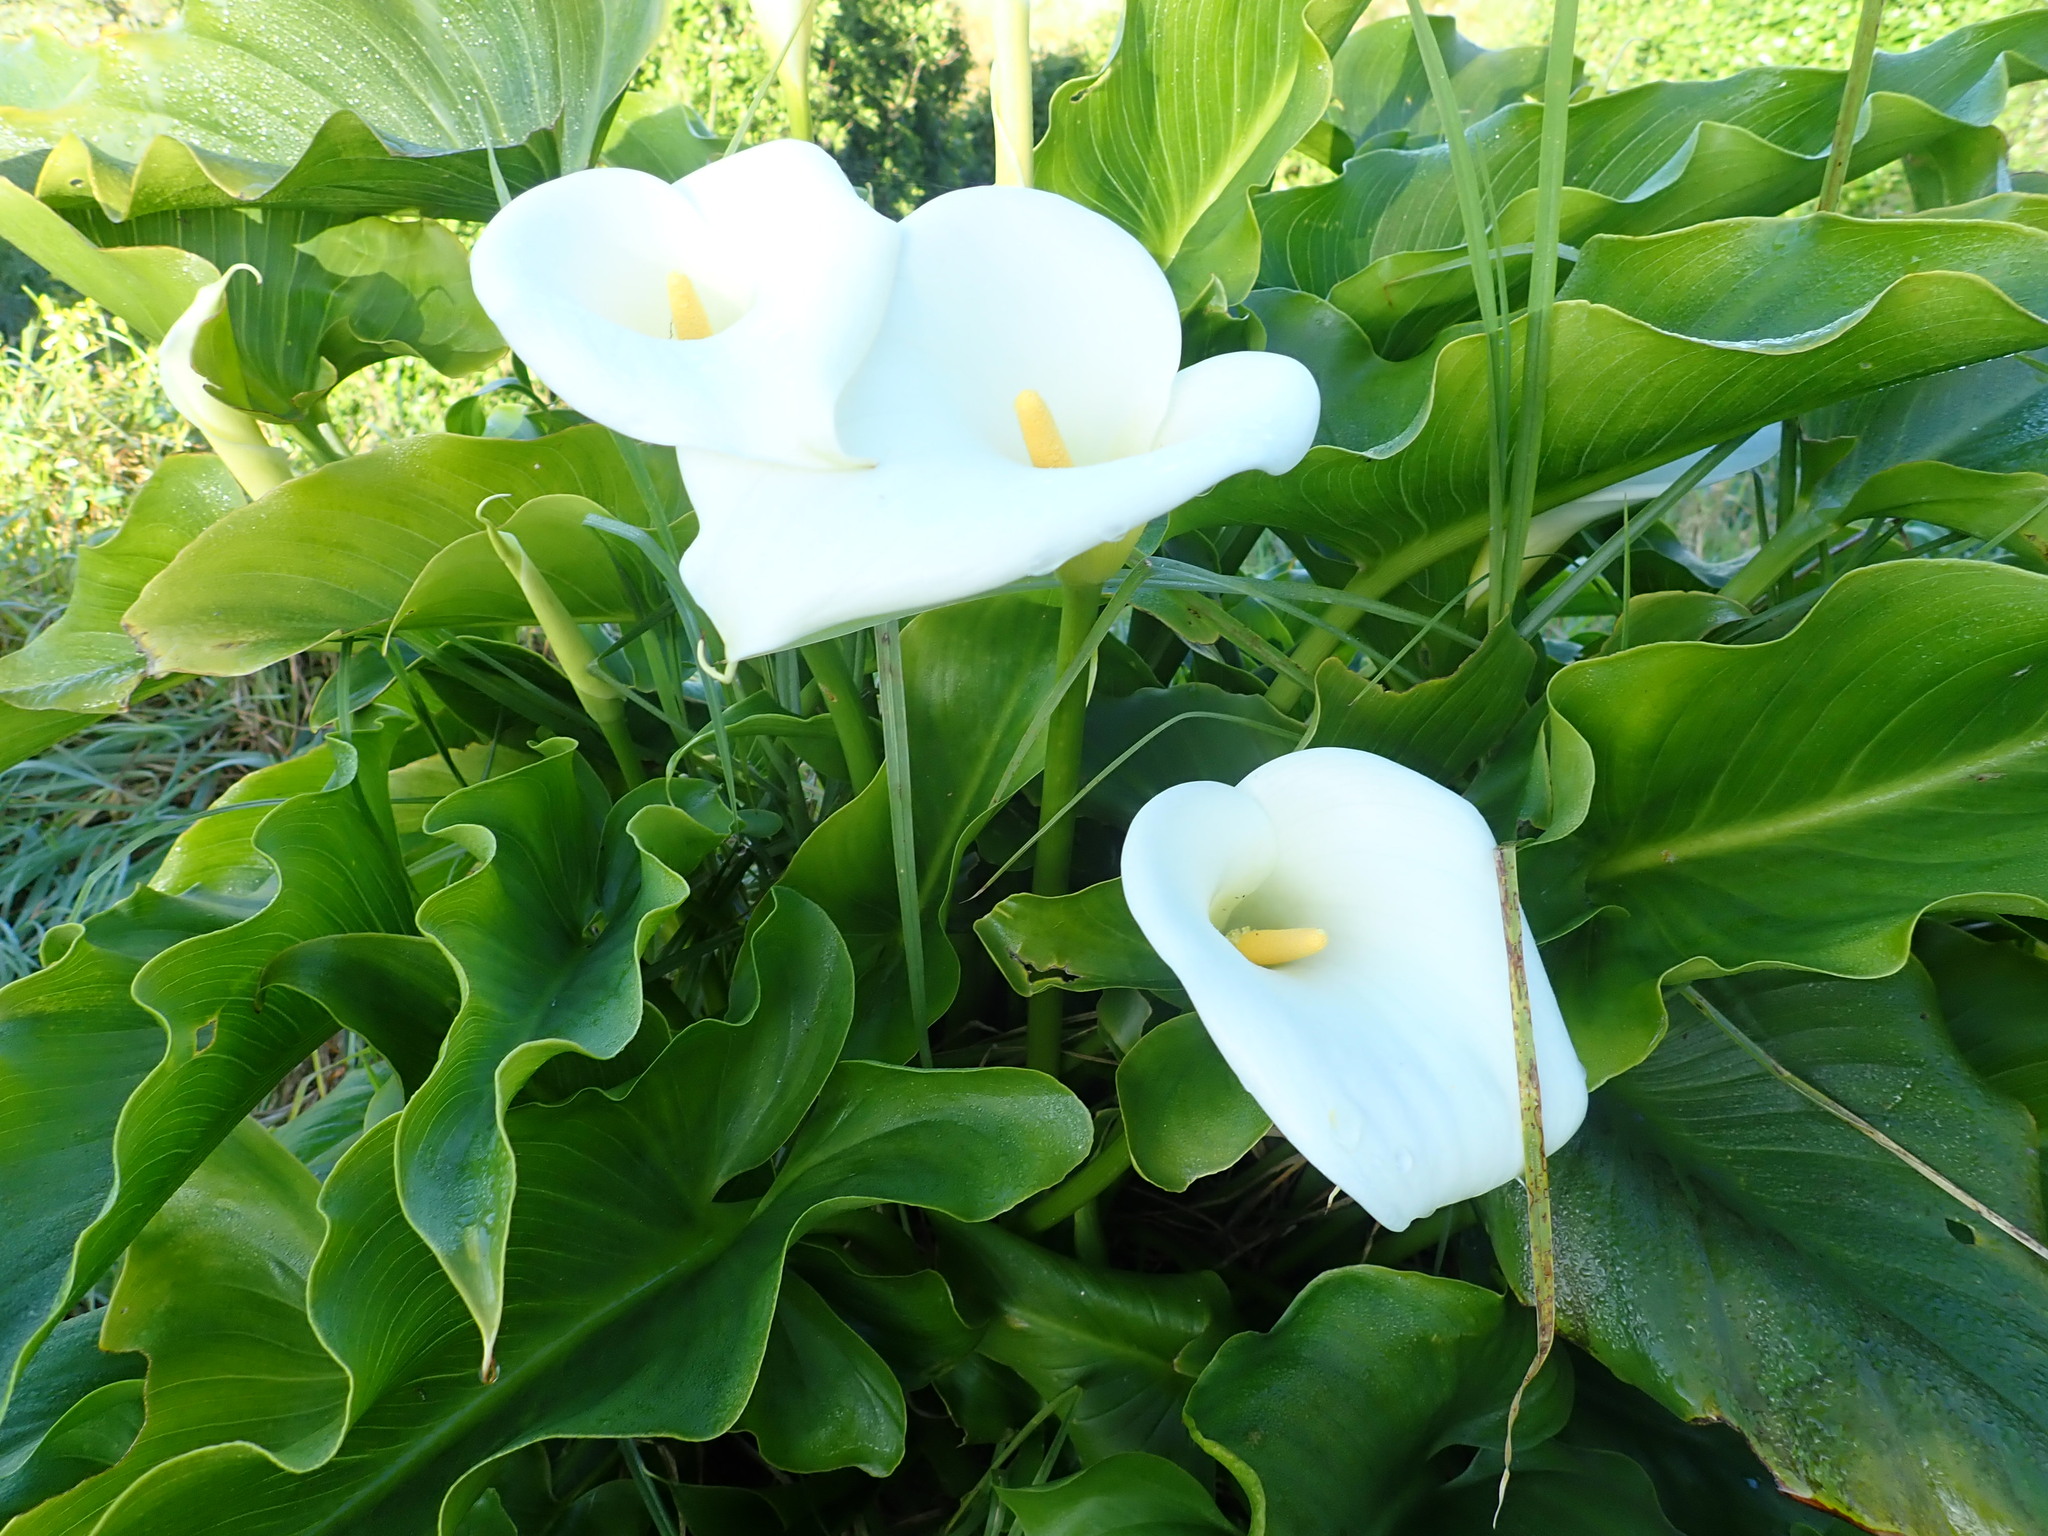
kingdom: Plantae
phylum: Tracheophyta
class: Liliopsida
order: Alismatales
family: Araceae
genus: Zantedeschia
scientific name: Zantedeschia aethiopica
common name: Altar-lily
